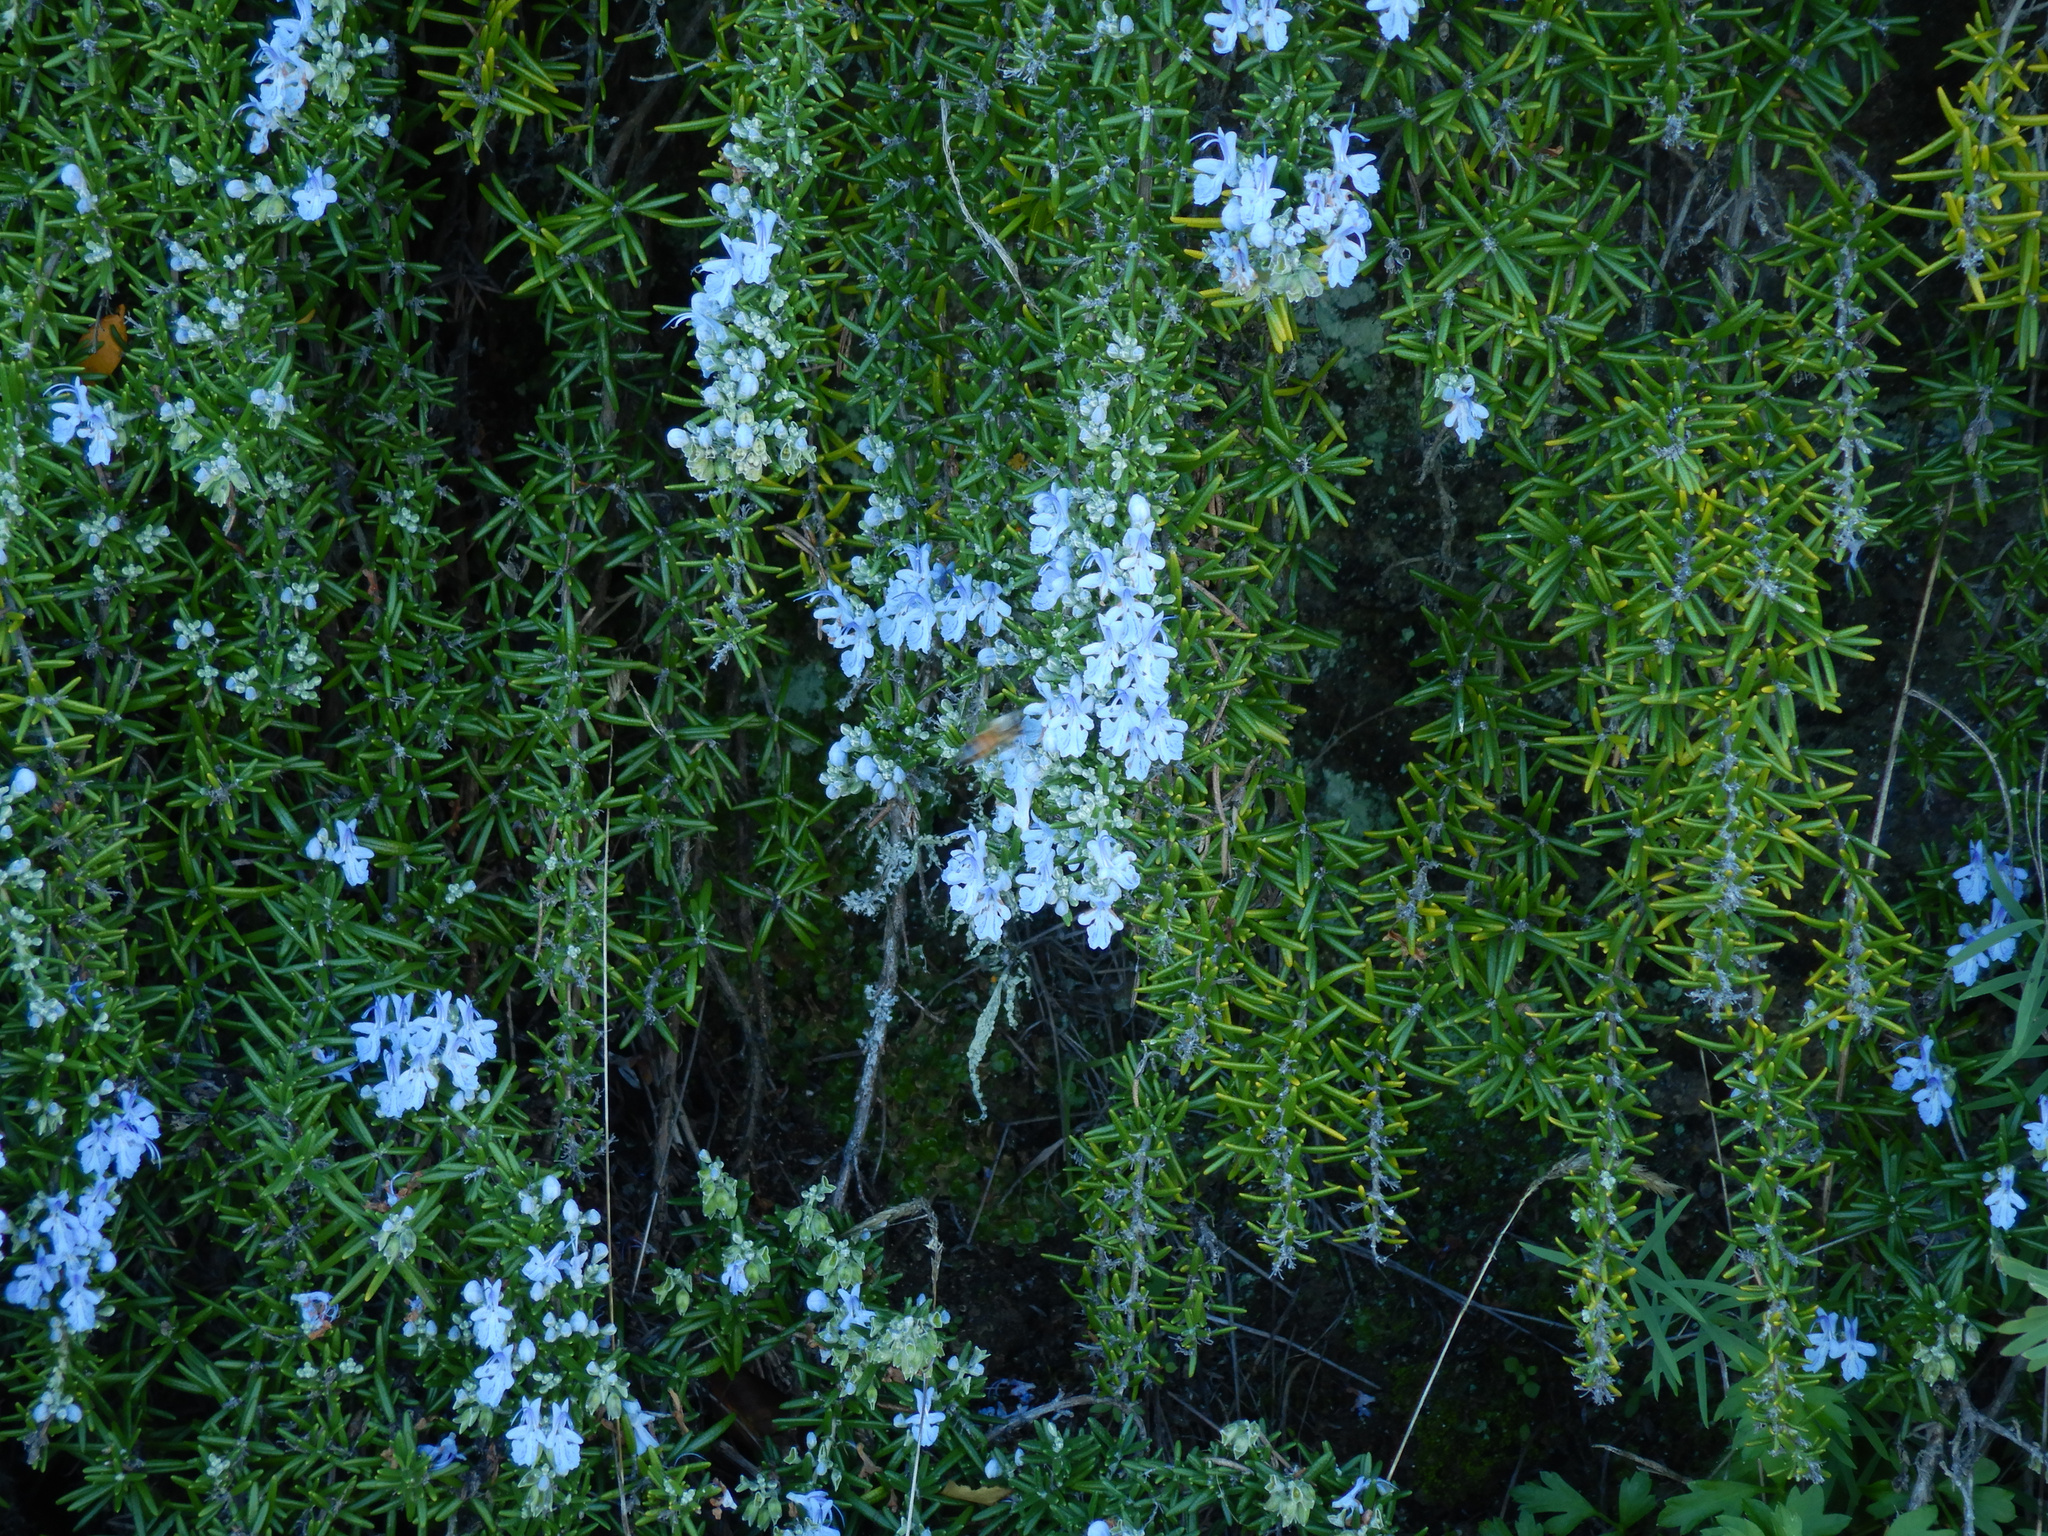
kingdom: Animalia
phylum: Arthropoda
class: Insecta
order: Hymenoptera
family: Apidae
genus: Apis
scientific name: Apis mellifera
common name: Honey bee
